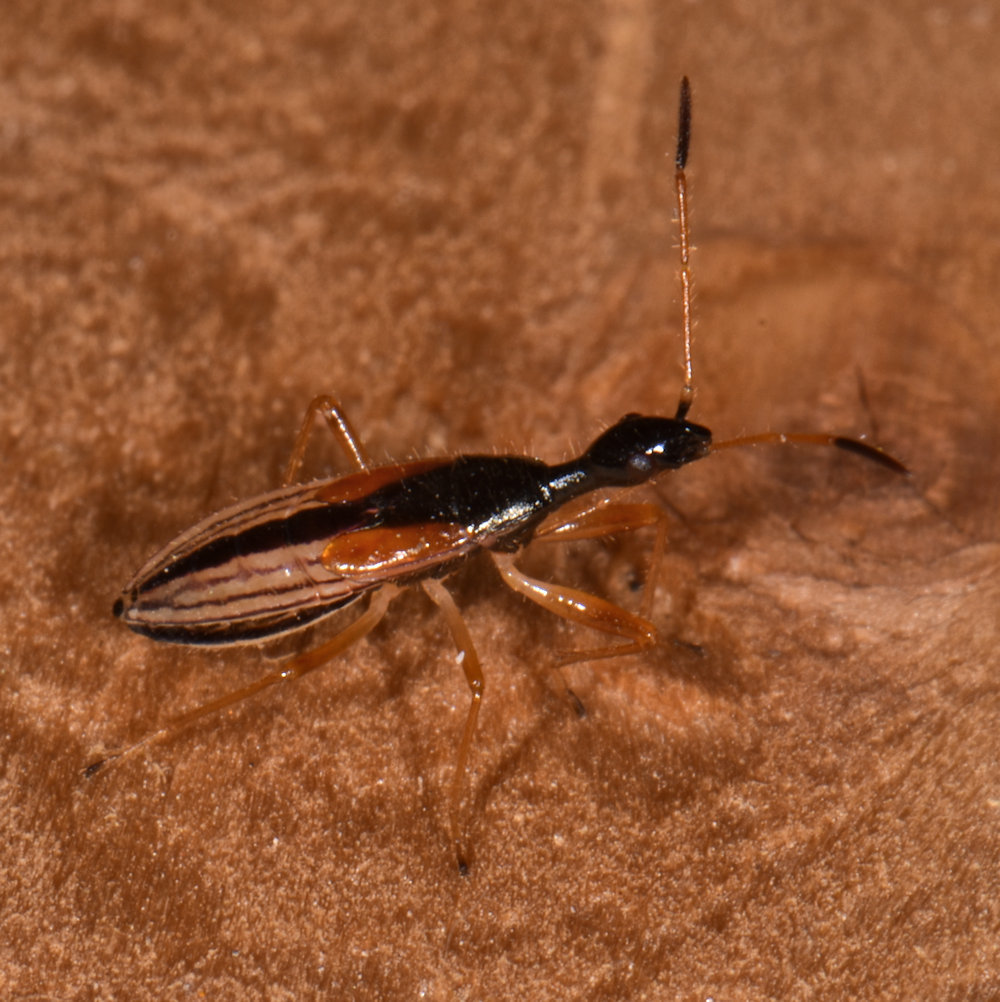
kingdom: Animalia
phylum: Arthropoda
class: Insecta
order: Hemiptera
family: Rhyparochromidae
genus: Myodocha
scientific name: Myodocha serripes
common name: Long-necked seed bug
